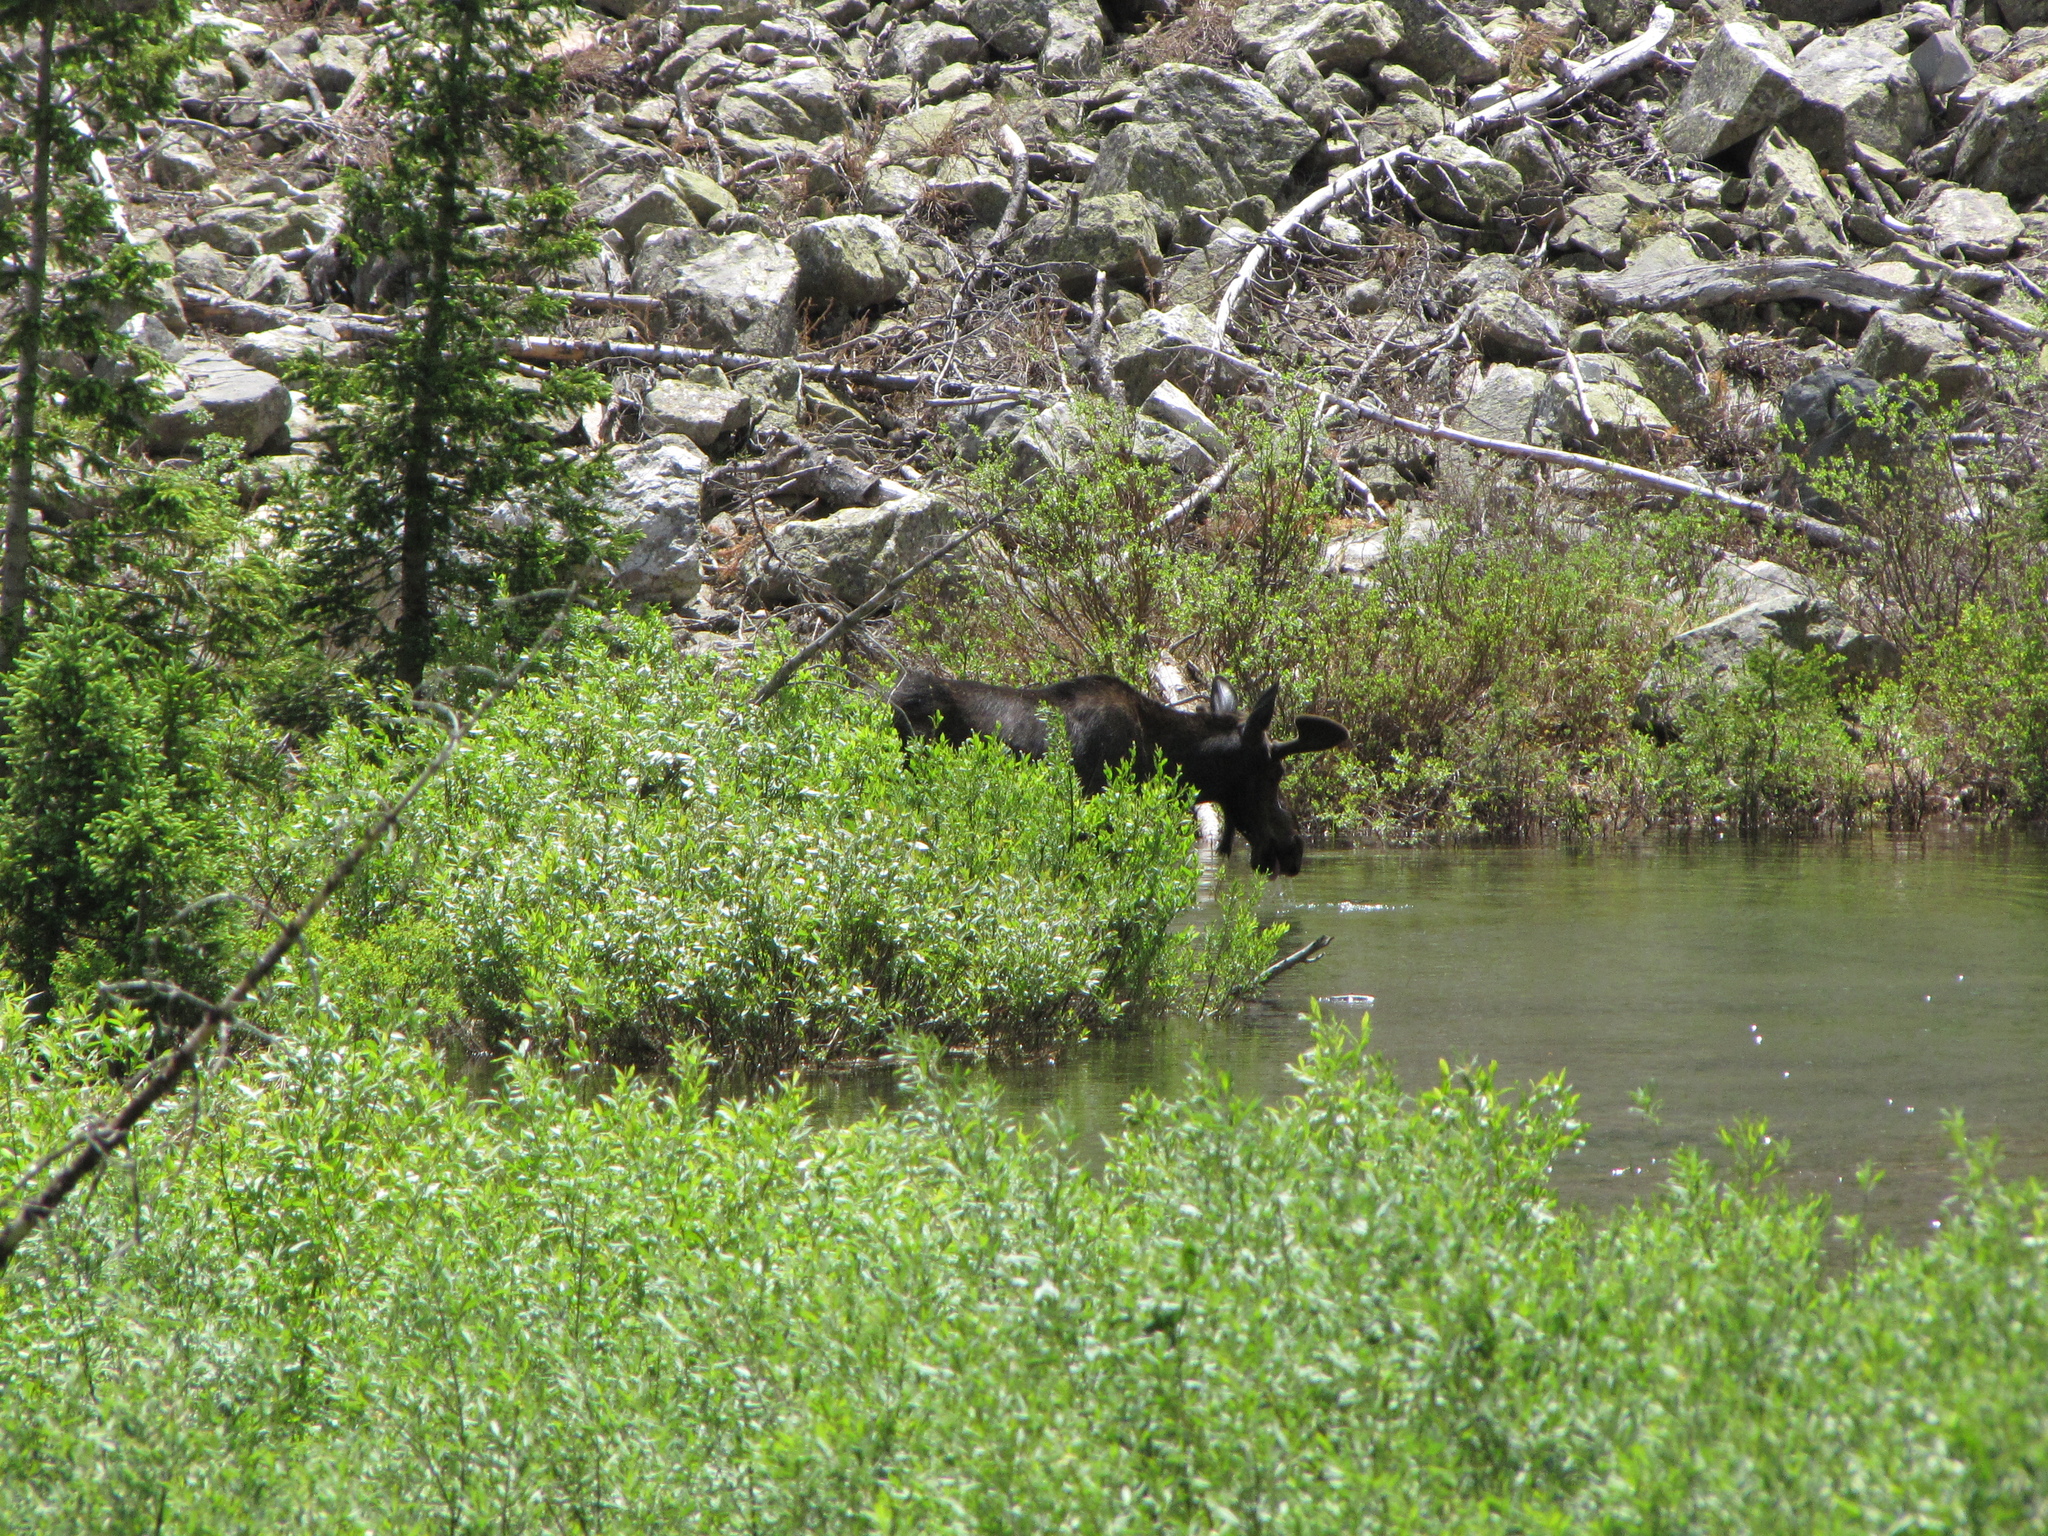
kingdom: Animalia
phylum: Chordata
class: Mammalia
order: Artiodactyla
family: Cervidae
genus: Alces
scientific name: Alces alces
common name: Moose
